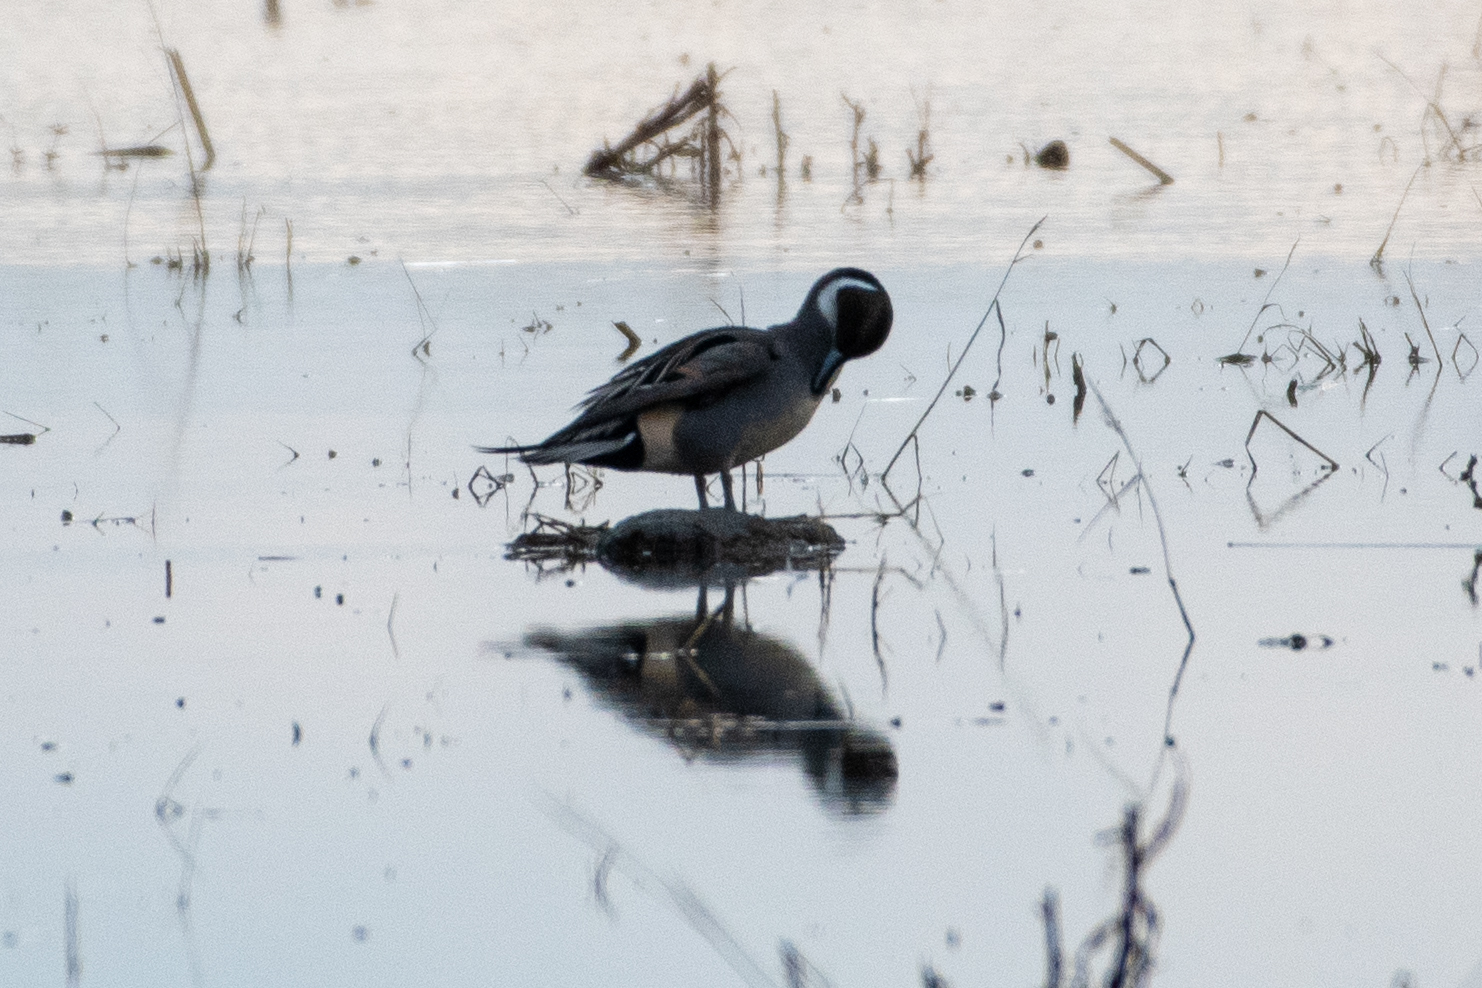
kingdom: Animalia
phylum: Chordata
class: Aves
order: Anseriformes
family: Anatidae
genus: Anas
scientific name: Anas acuta
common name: Northern pintail
